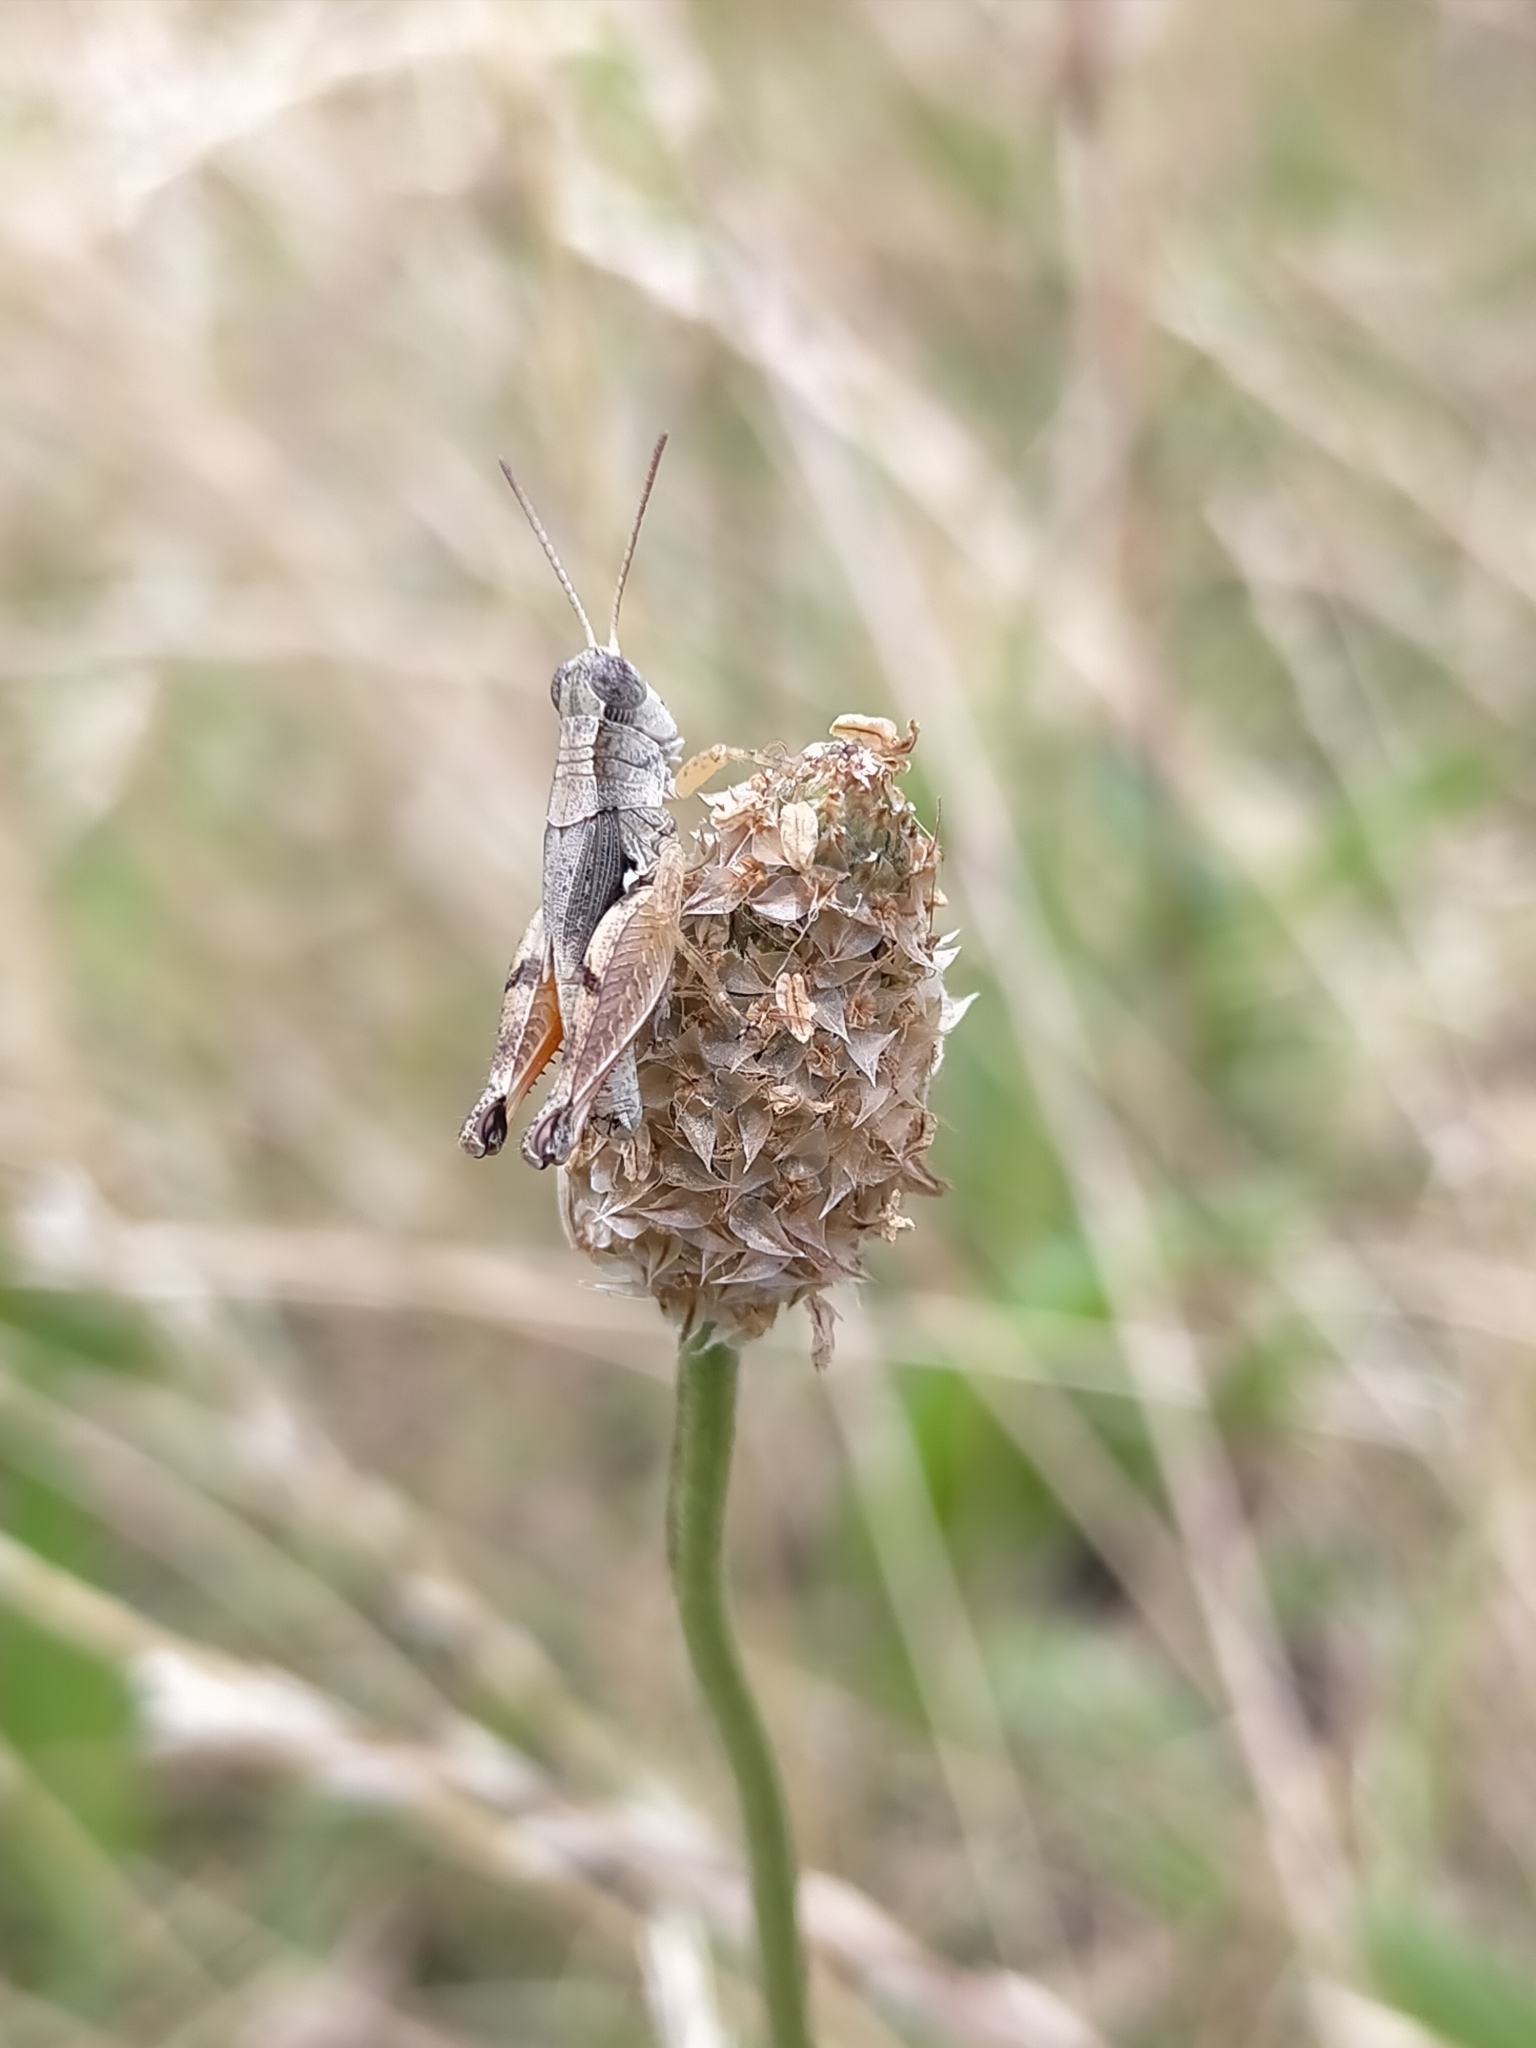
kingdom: Animalia
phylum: Arthropoda
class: Insecta
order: Orthoptera
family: Acrididae
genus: Phaulacridium
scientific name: Phaulacridium vittatum
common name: Wingless grasshopper
